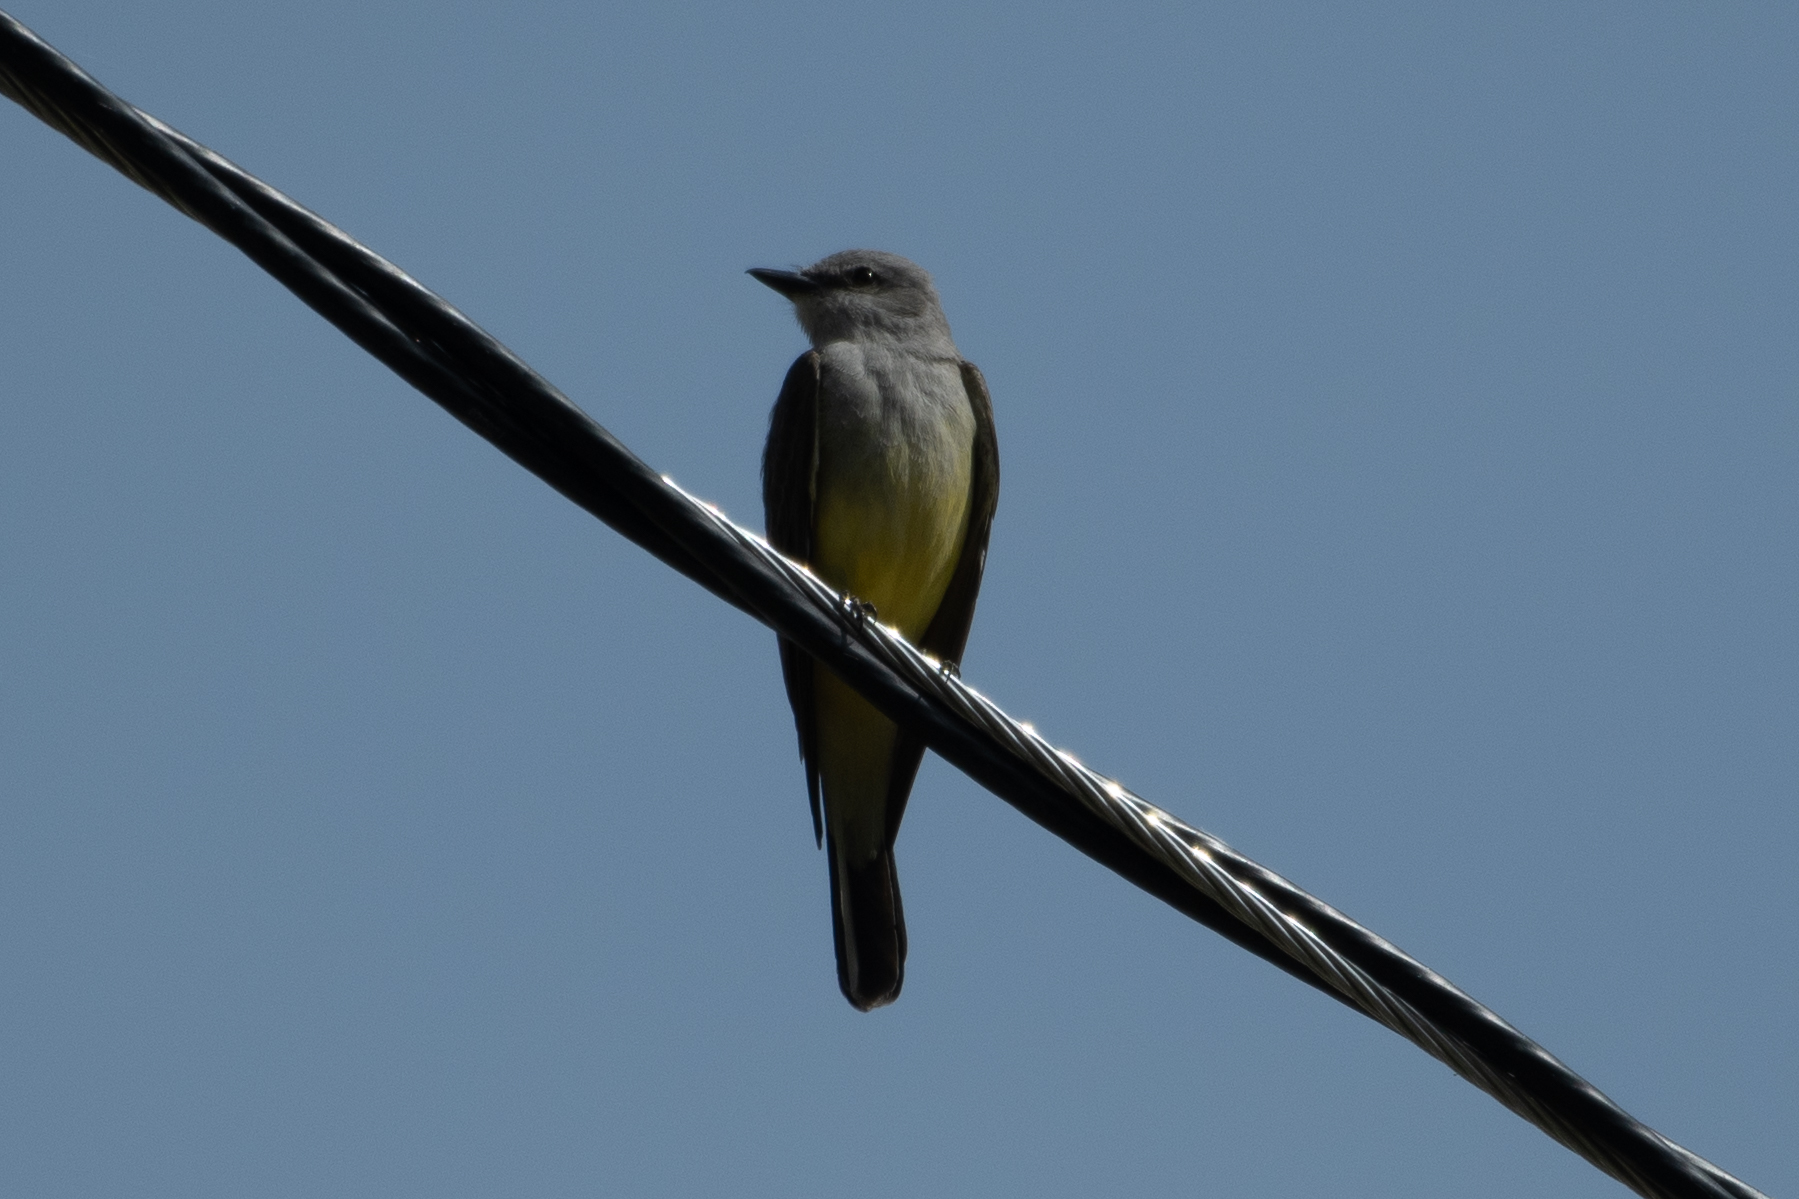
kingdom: Animalia
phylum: Chordata
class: Aves
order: Passeriformes
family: Tyrannidae
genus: Tyrannus
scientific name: Tyrannus verticalis
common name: Western kingbird
